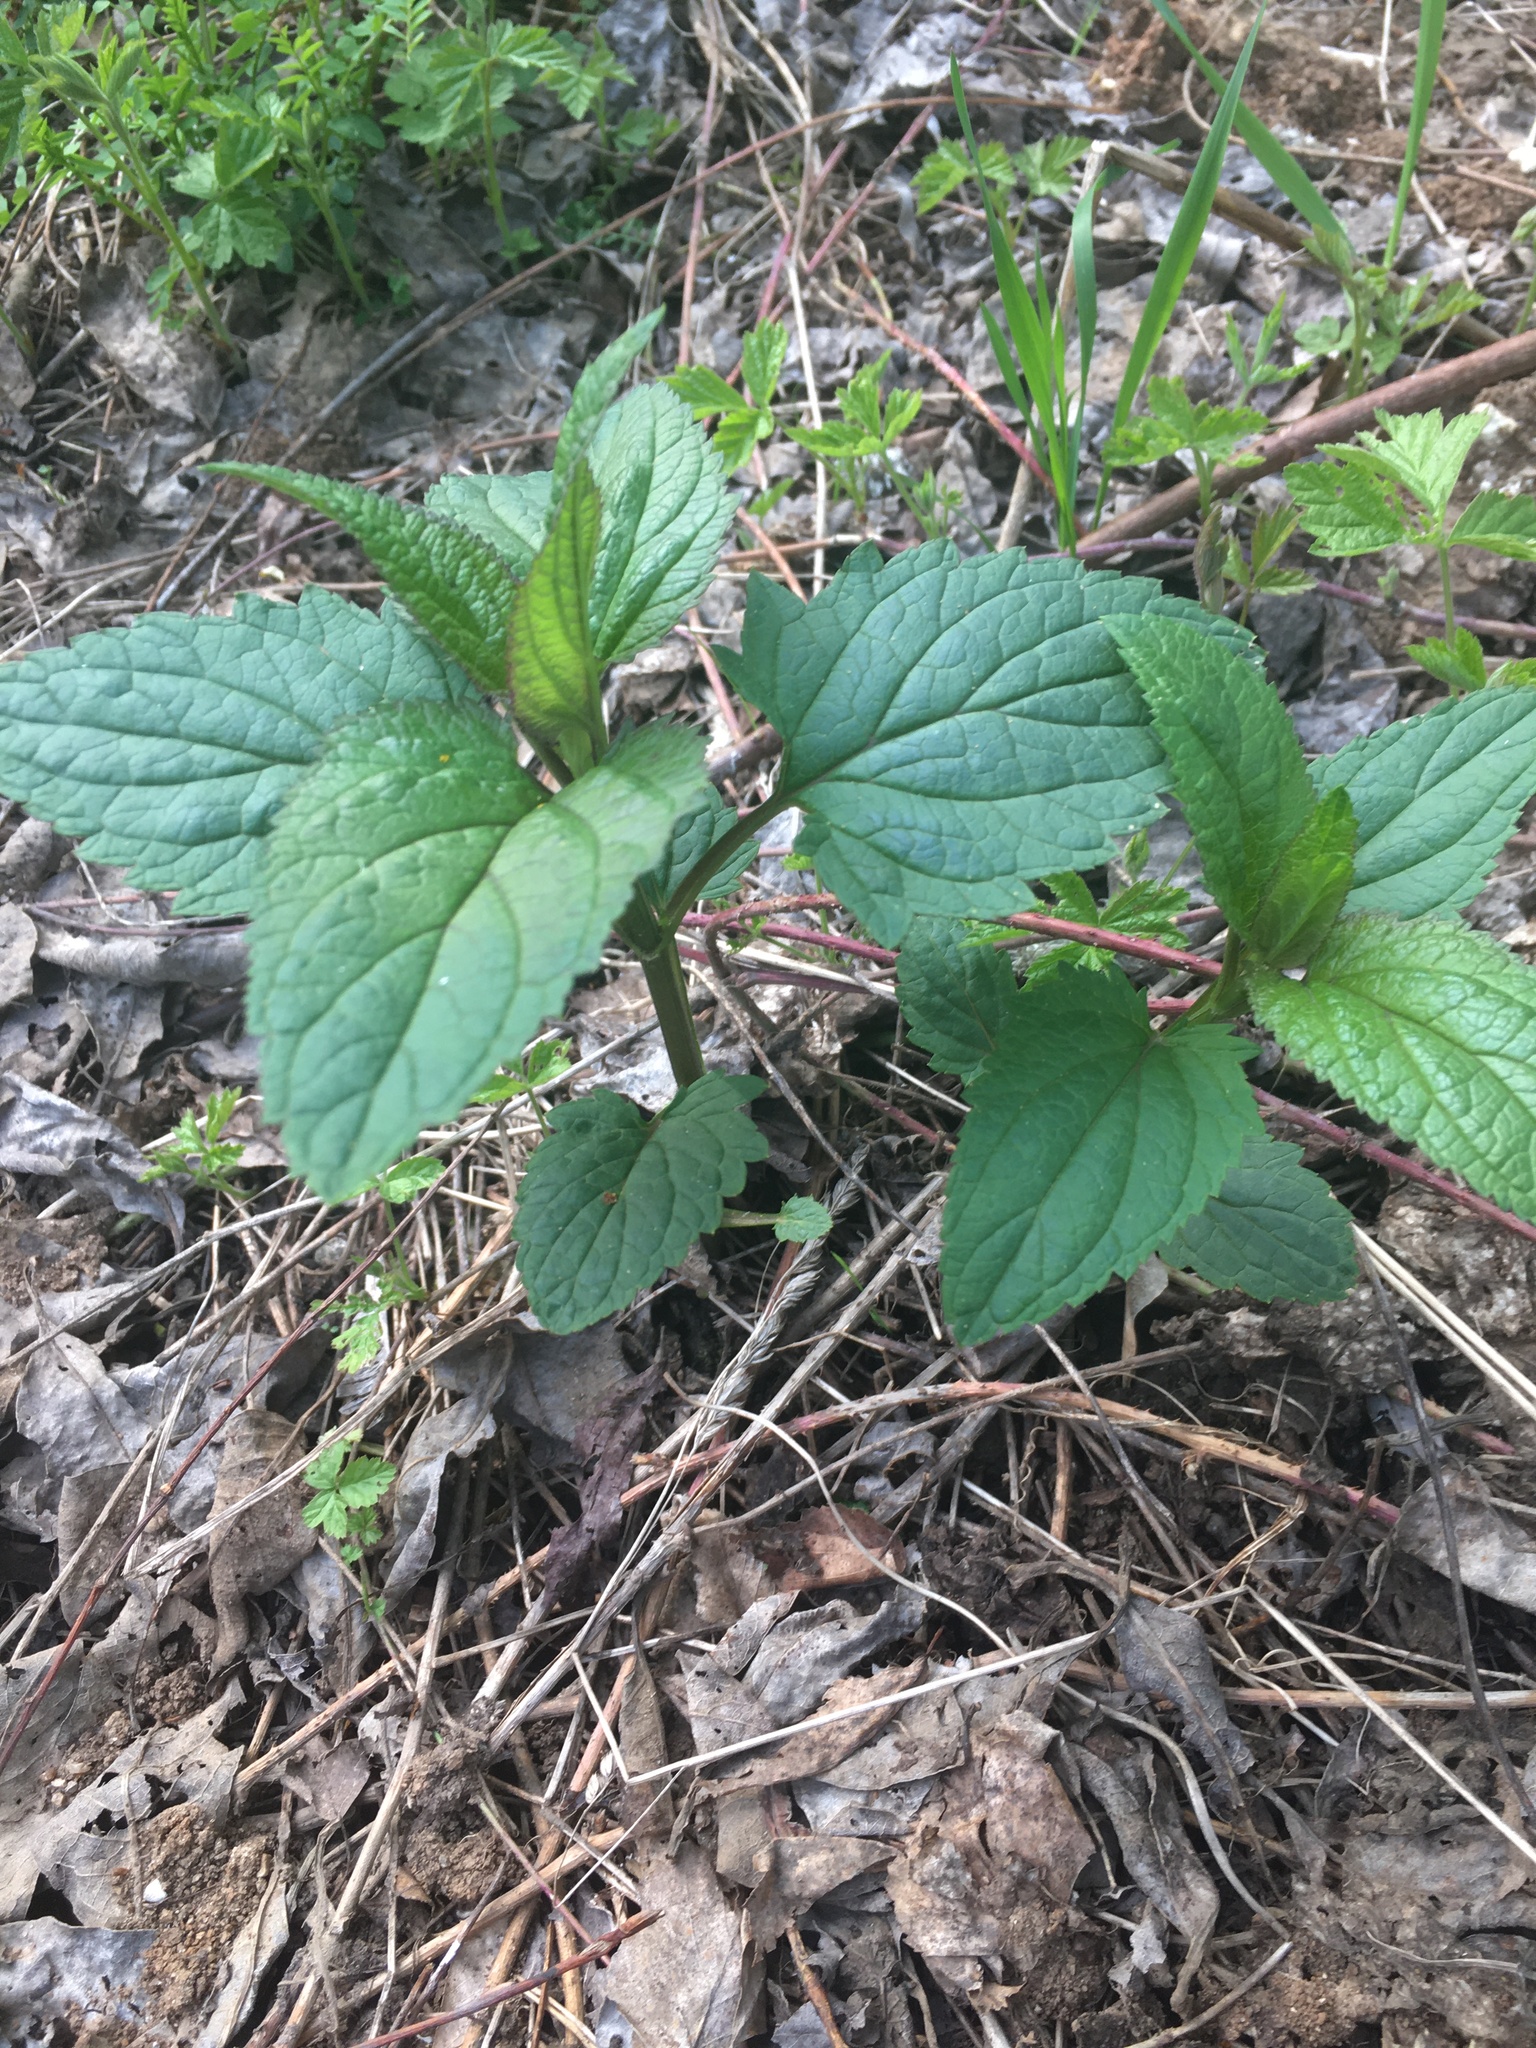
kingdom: Plantae
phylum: Tracheophyta
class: Magnoliopsida
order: Lamiales
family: Scrophulariaceae
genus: Scrophularia
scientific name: Scrophularia nodosa
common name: Common figwort
